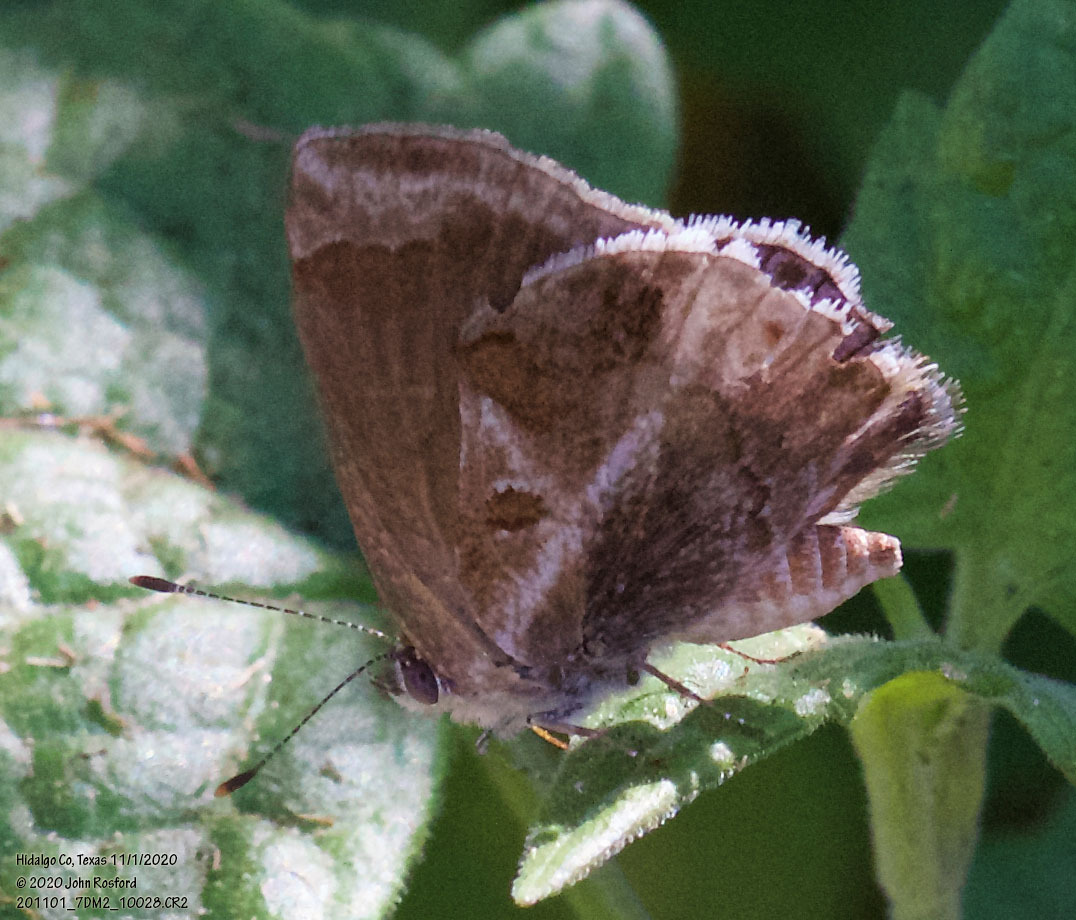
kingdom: Animalia
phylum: Arthropoda
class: Insecta
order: Lepidoptera
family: Lycaenidae
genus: Strymon
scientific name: Strymon bazochii
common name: Lantana scrub-hairstreak
